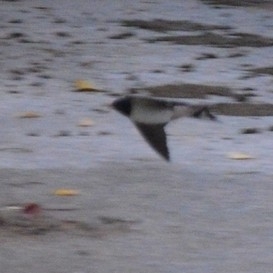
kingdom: Animalia
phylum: Chordata
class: Aves
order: Passeriformes
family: Hirundinidae
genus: Hirundo
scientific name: Hirundo rustica
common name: Barn swallow
